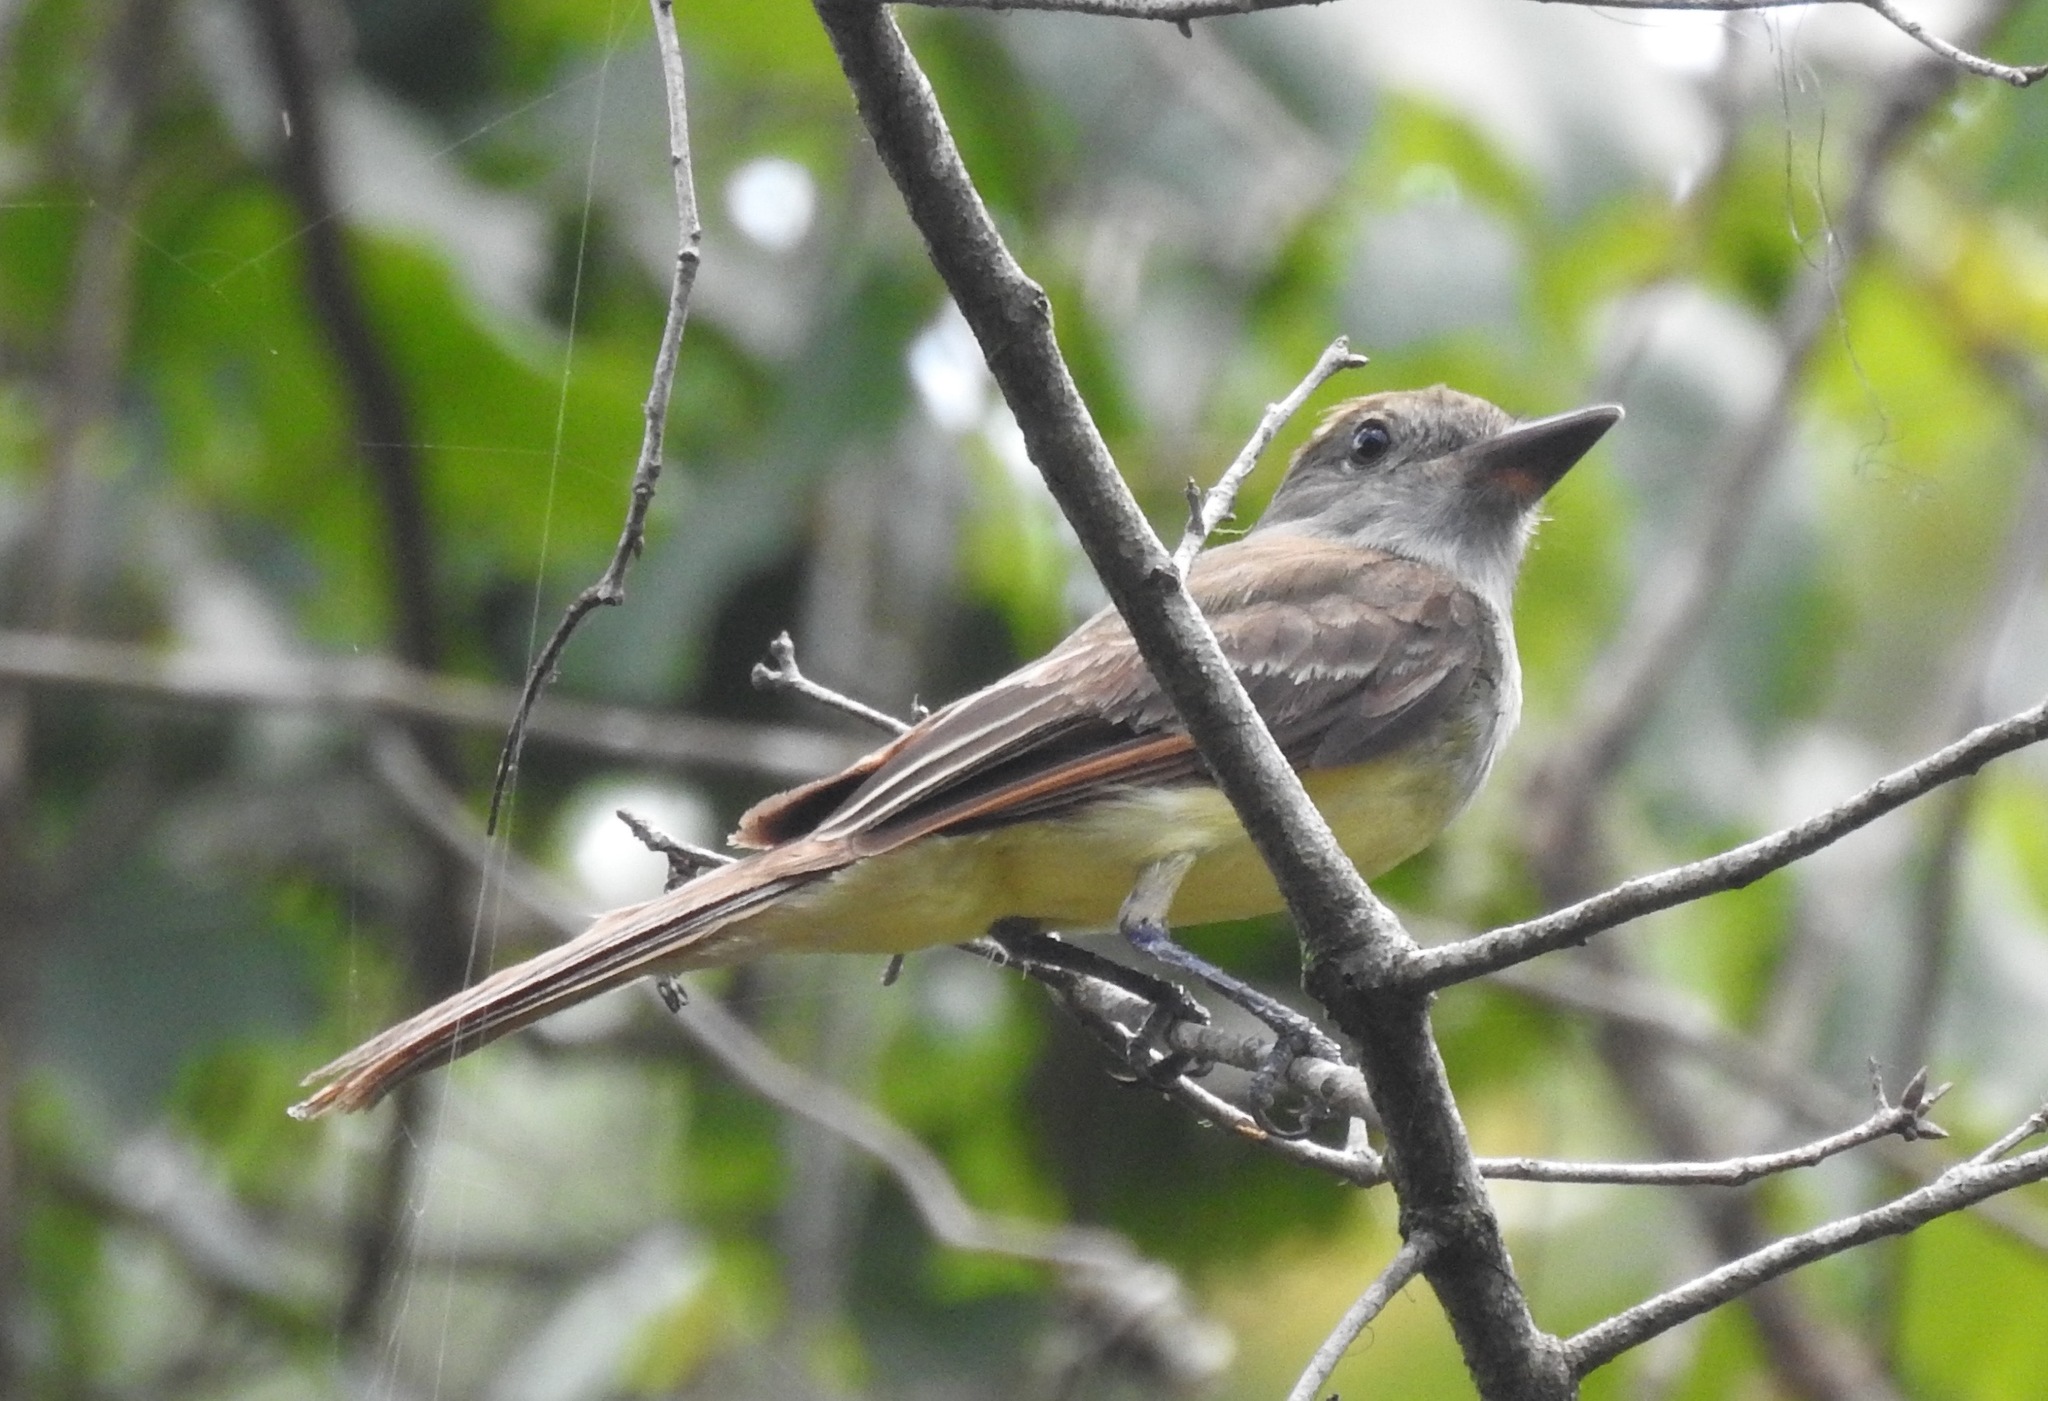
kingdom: Animalia
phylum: Chordata
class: Aves
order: Passeriformes
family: Tyrannidae
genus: Myiarchus
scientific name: Myiarchus crinitus
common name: Great crested flycatcher
